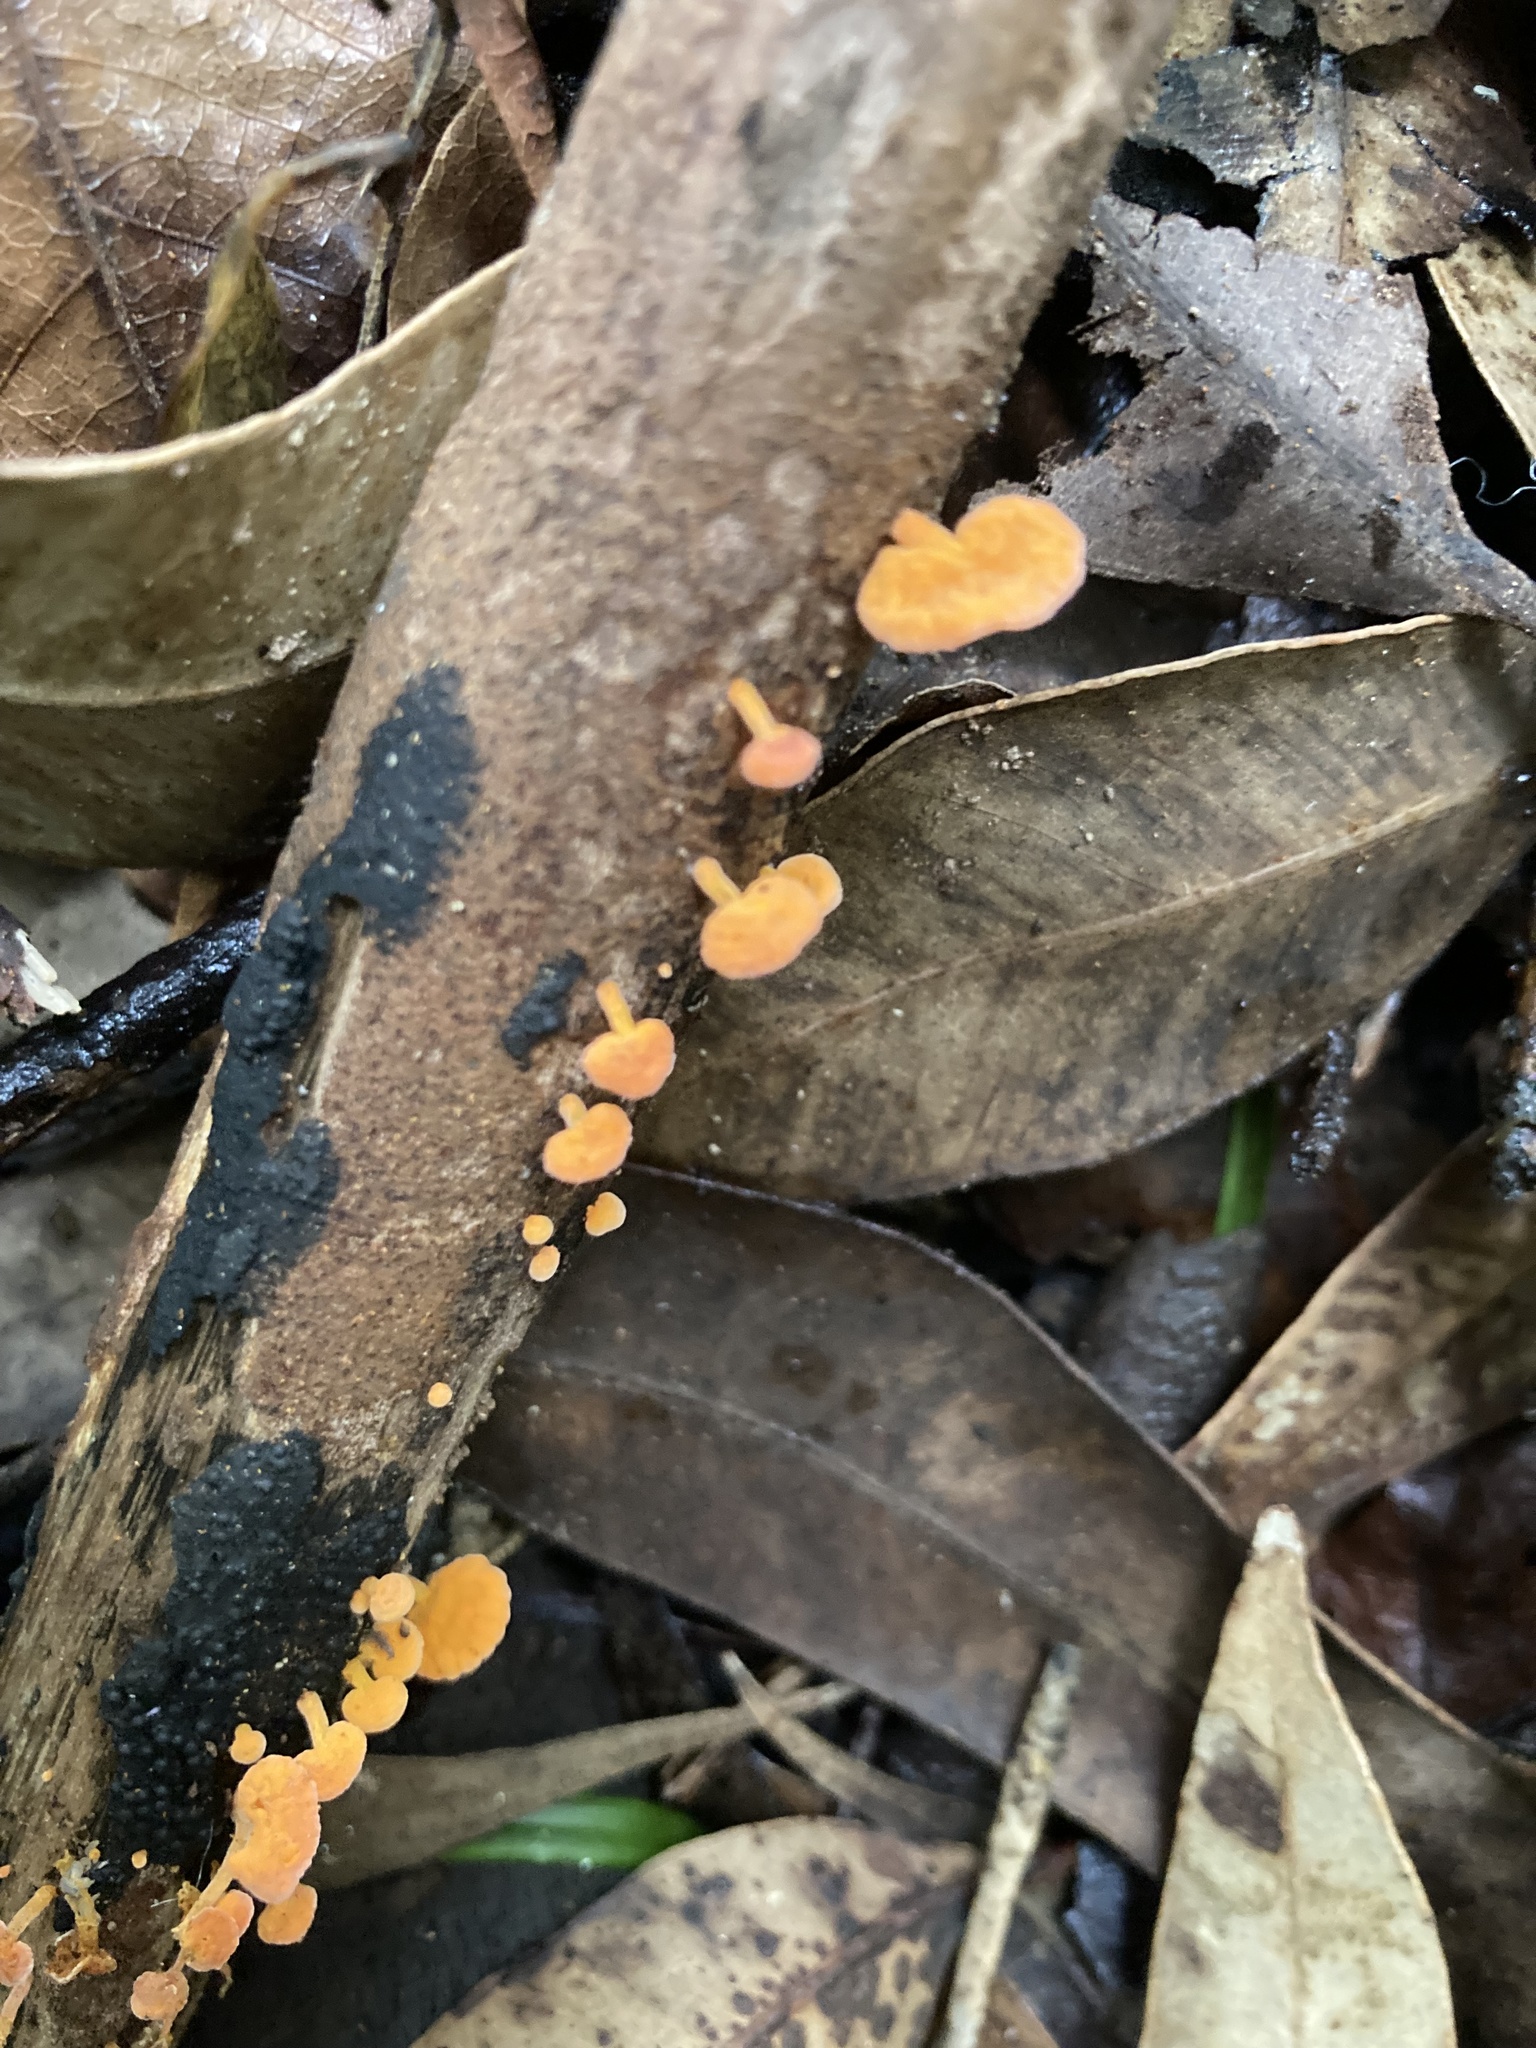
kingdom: Fungi
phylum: Basidiomycota
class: Agaricomycetes
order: Agaricales
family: Mycenaceae
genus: Favolaschia
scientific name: Favolaschia claudopus
